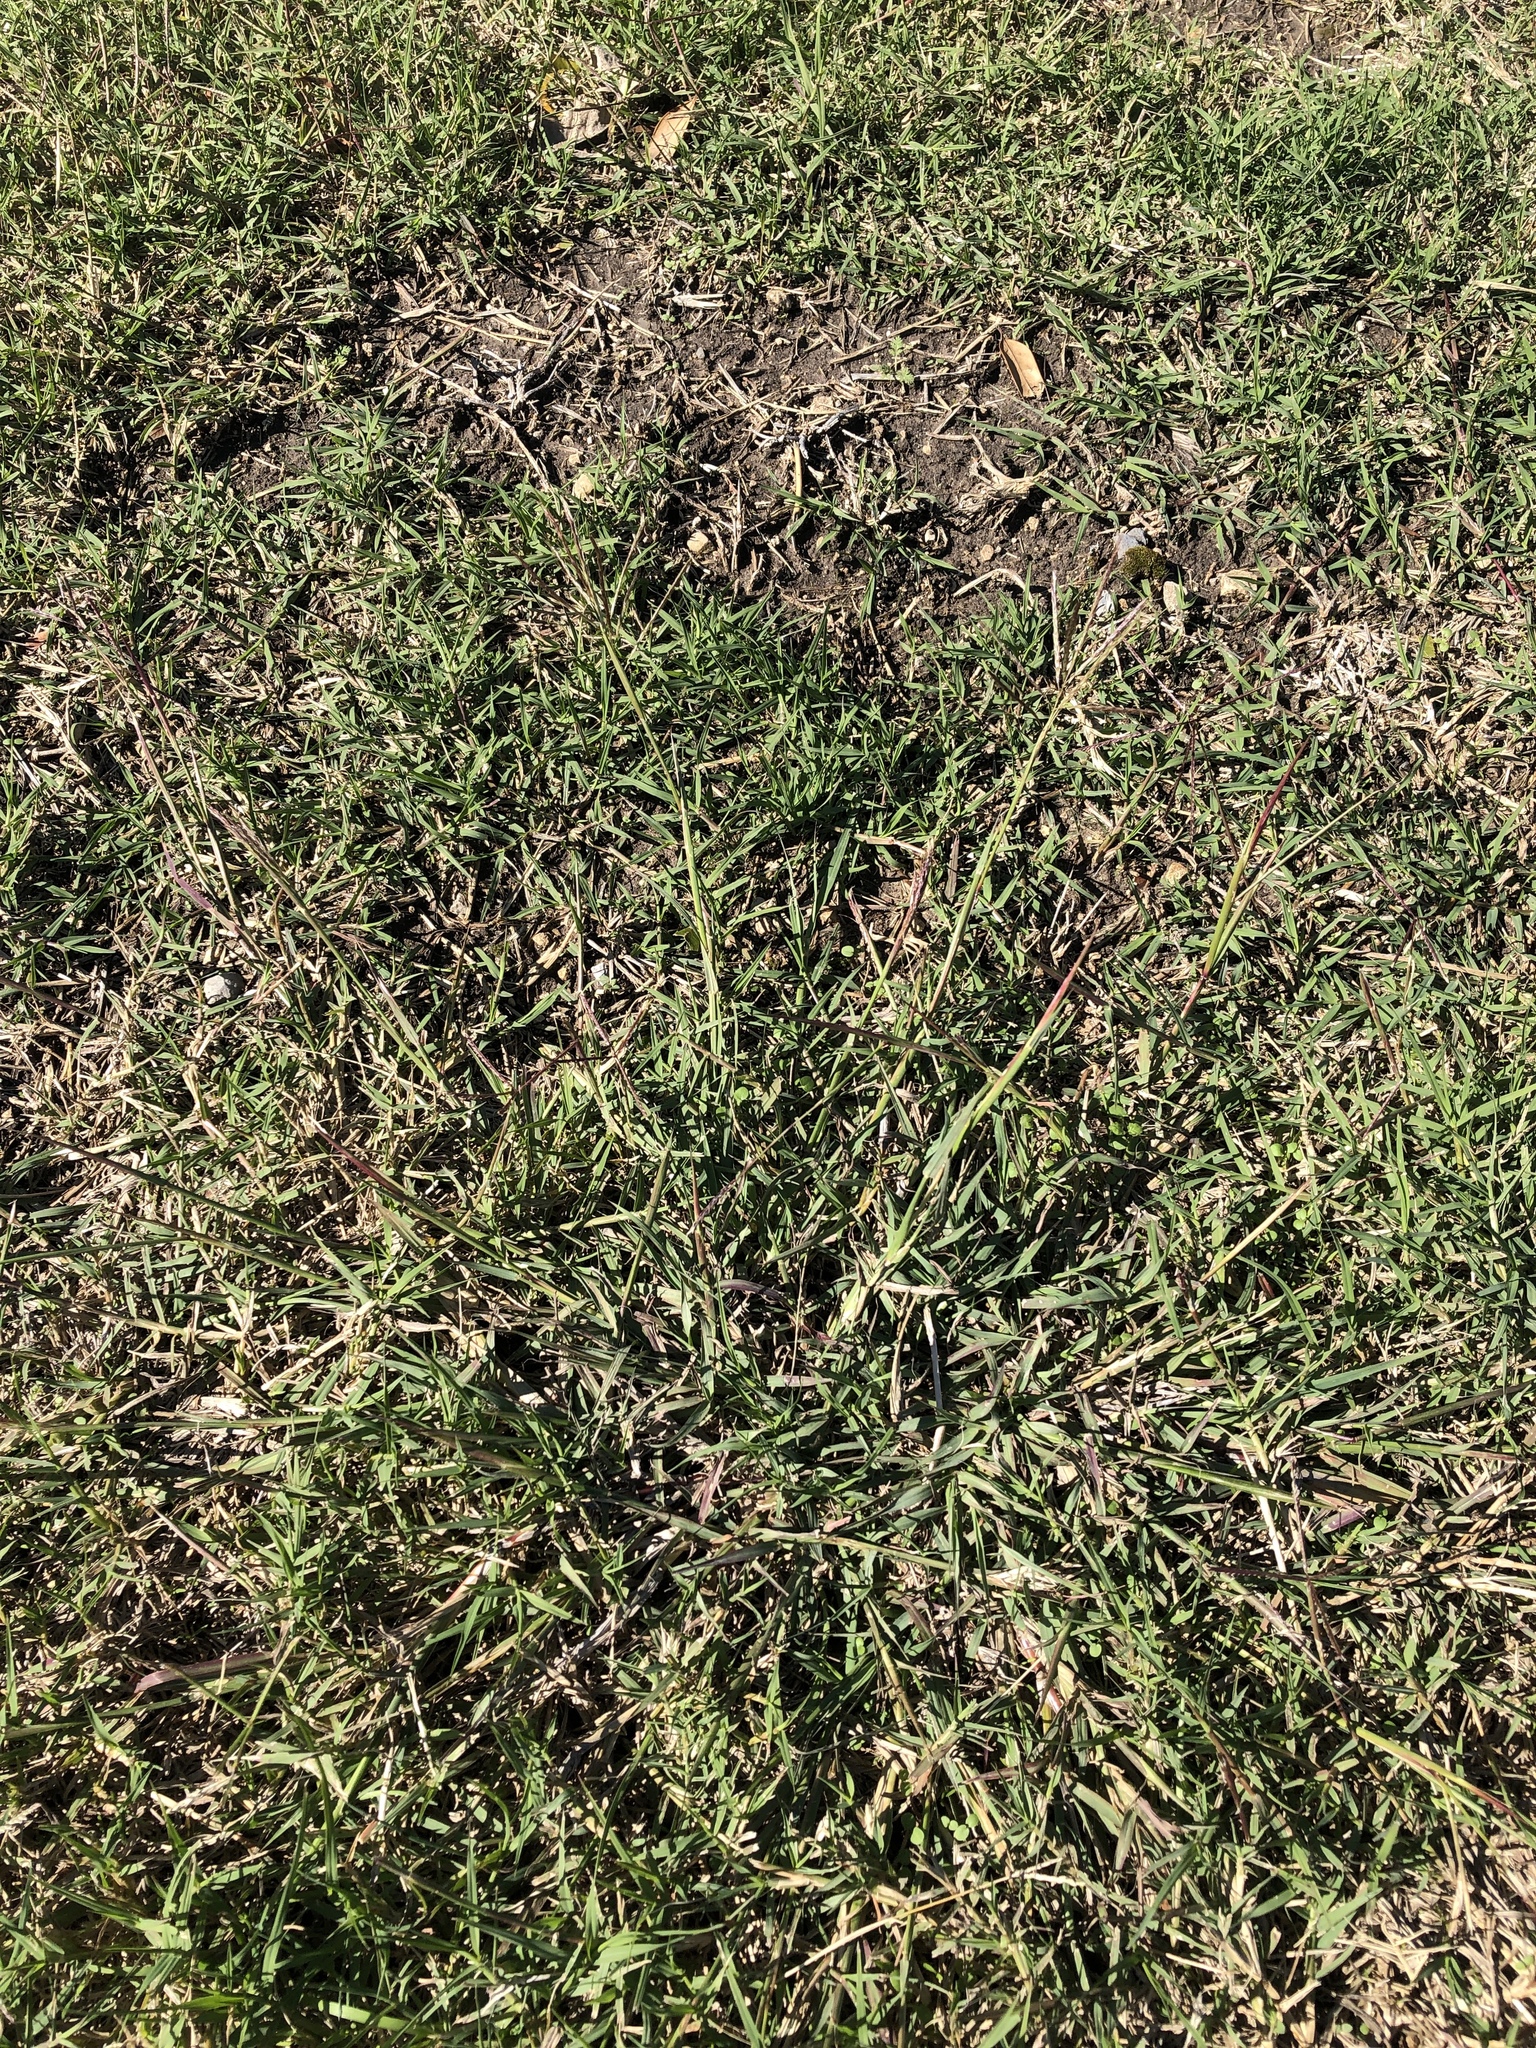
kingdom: Plantae
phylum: Tracheophyta
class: Liliopsida
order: Poales
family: Poaceae
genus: Bothriochloa
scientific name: Bothriochloa ischaemum
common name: Yellow bluestem
